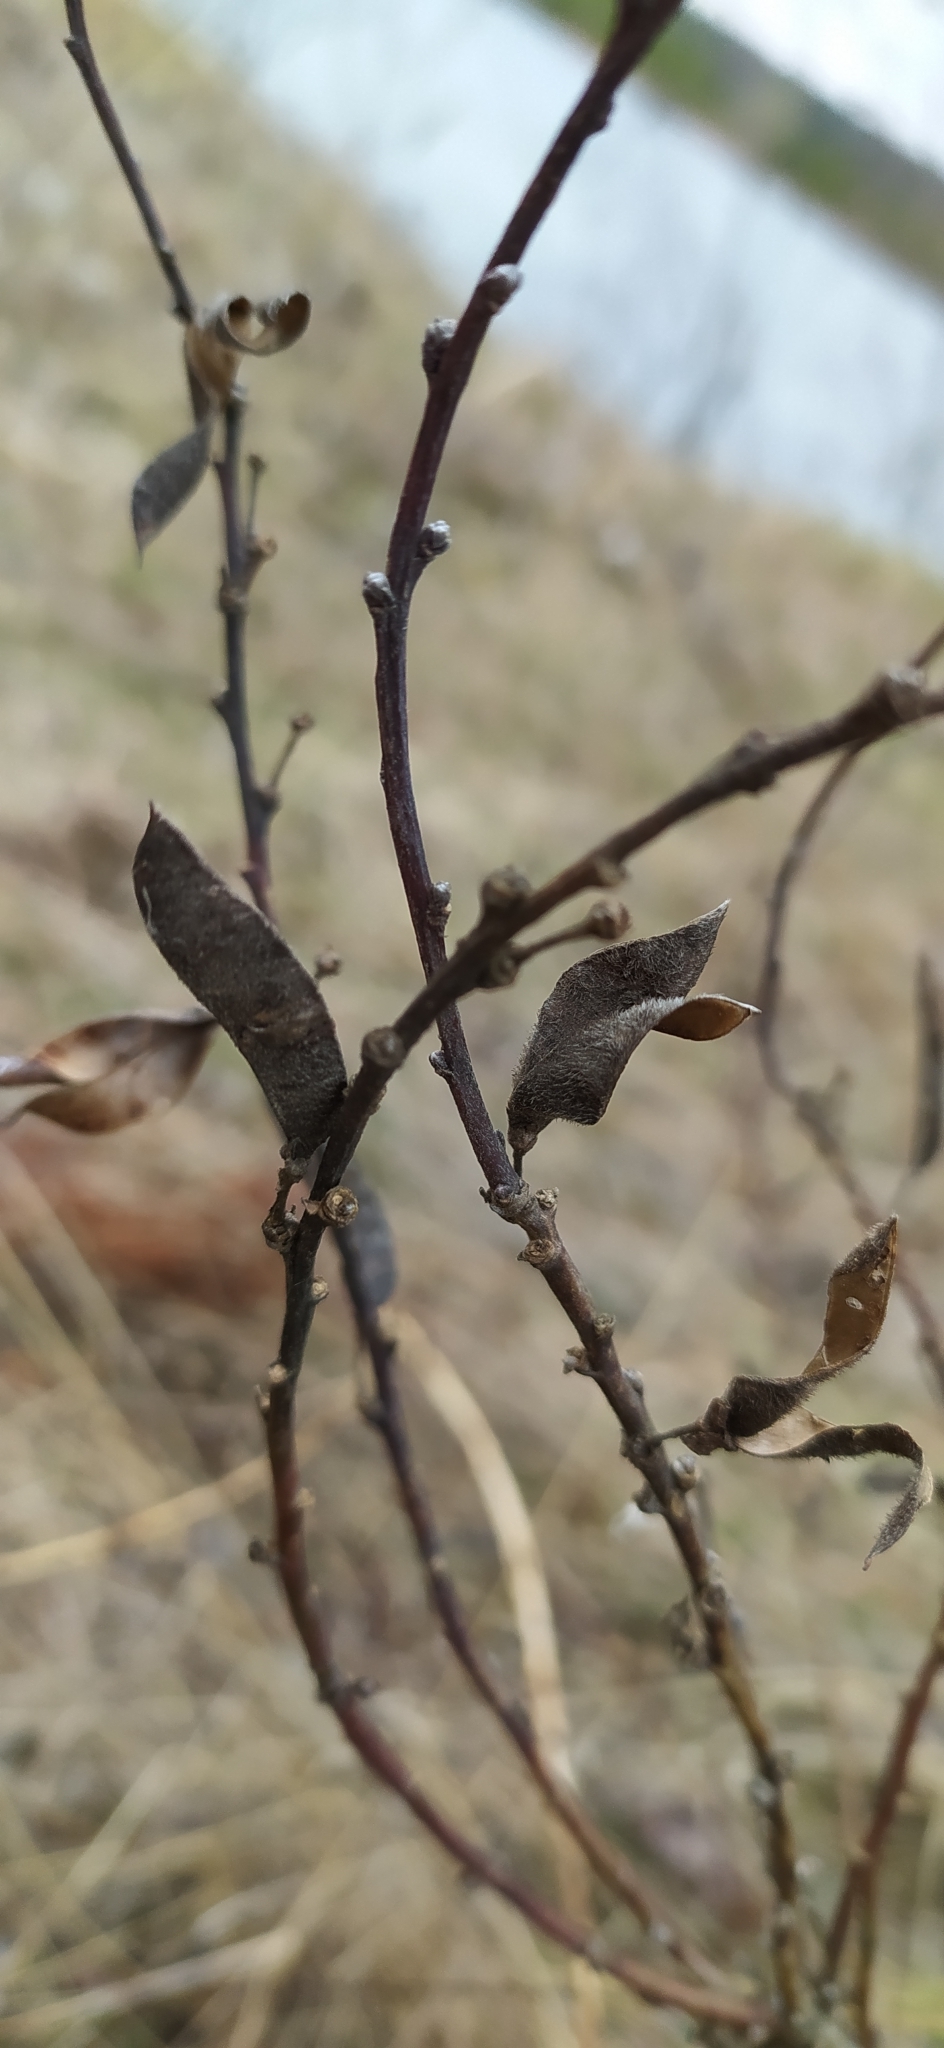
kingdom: Plantae
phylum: Tracheophyta
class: Magnoliopsida
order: Fabales
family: Fabaceae
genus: Chamaecytisus
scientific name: Chamaecytisus ruthenicus
